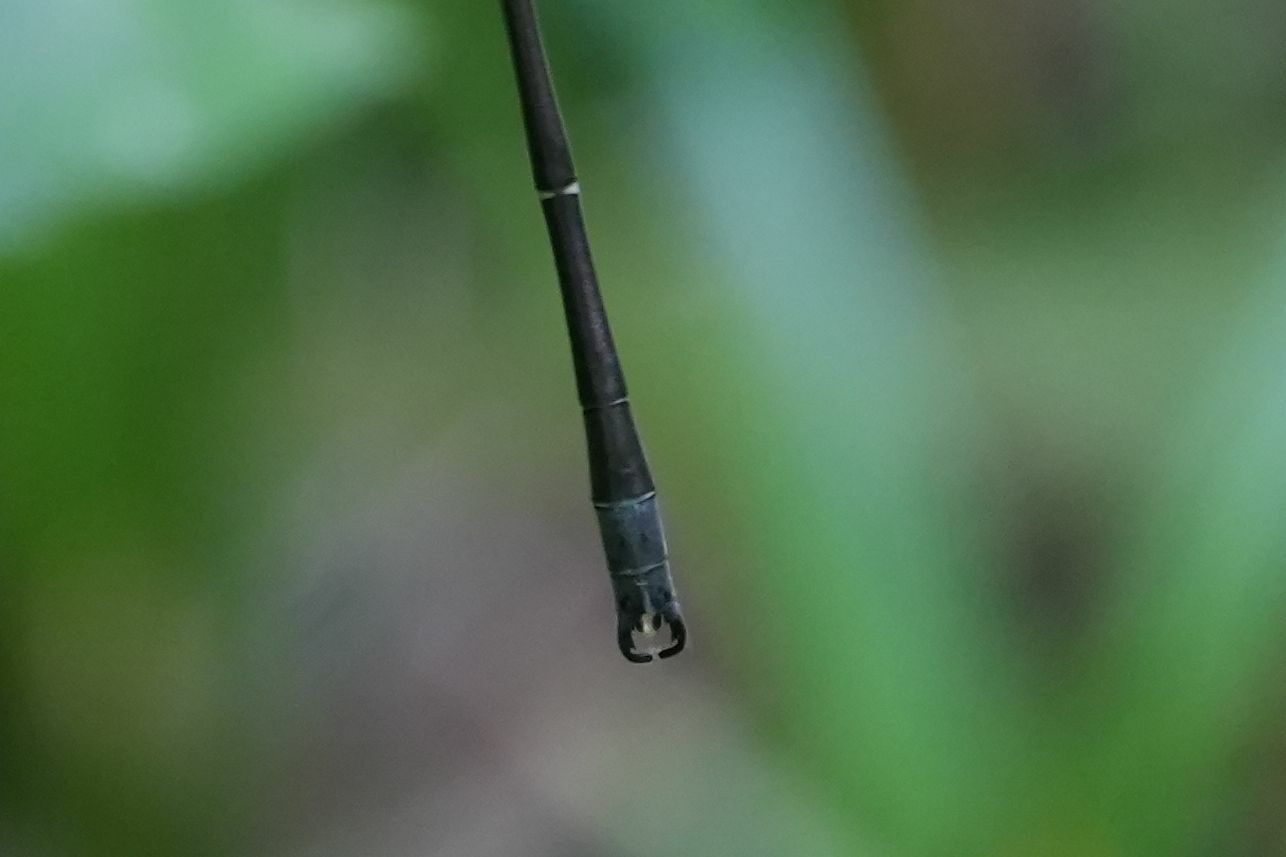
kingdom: Animalia
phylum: Arthropoda
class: Insecta
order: Odonata
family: Lestidae
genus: Lestes
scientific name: Lestes rectangularis
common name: Slender spreadwing
